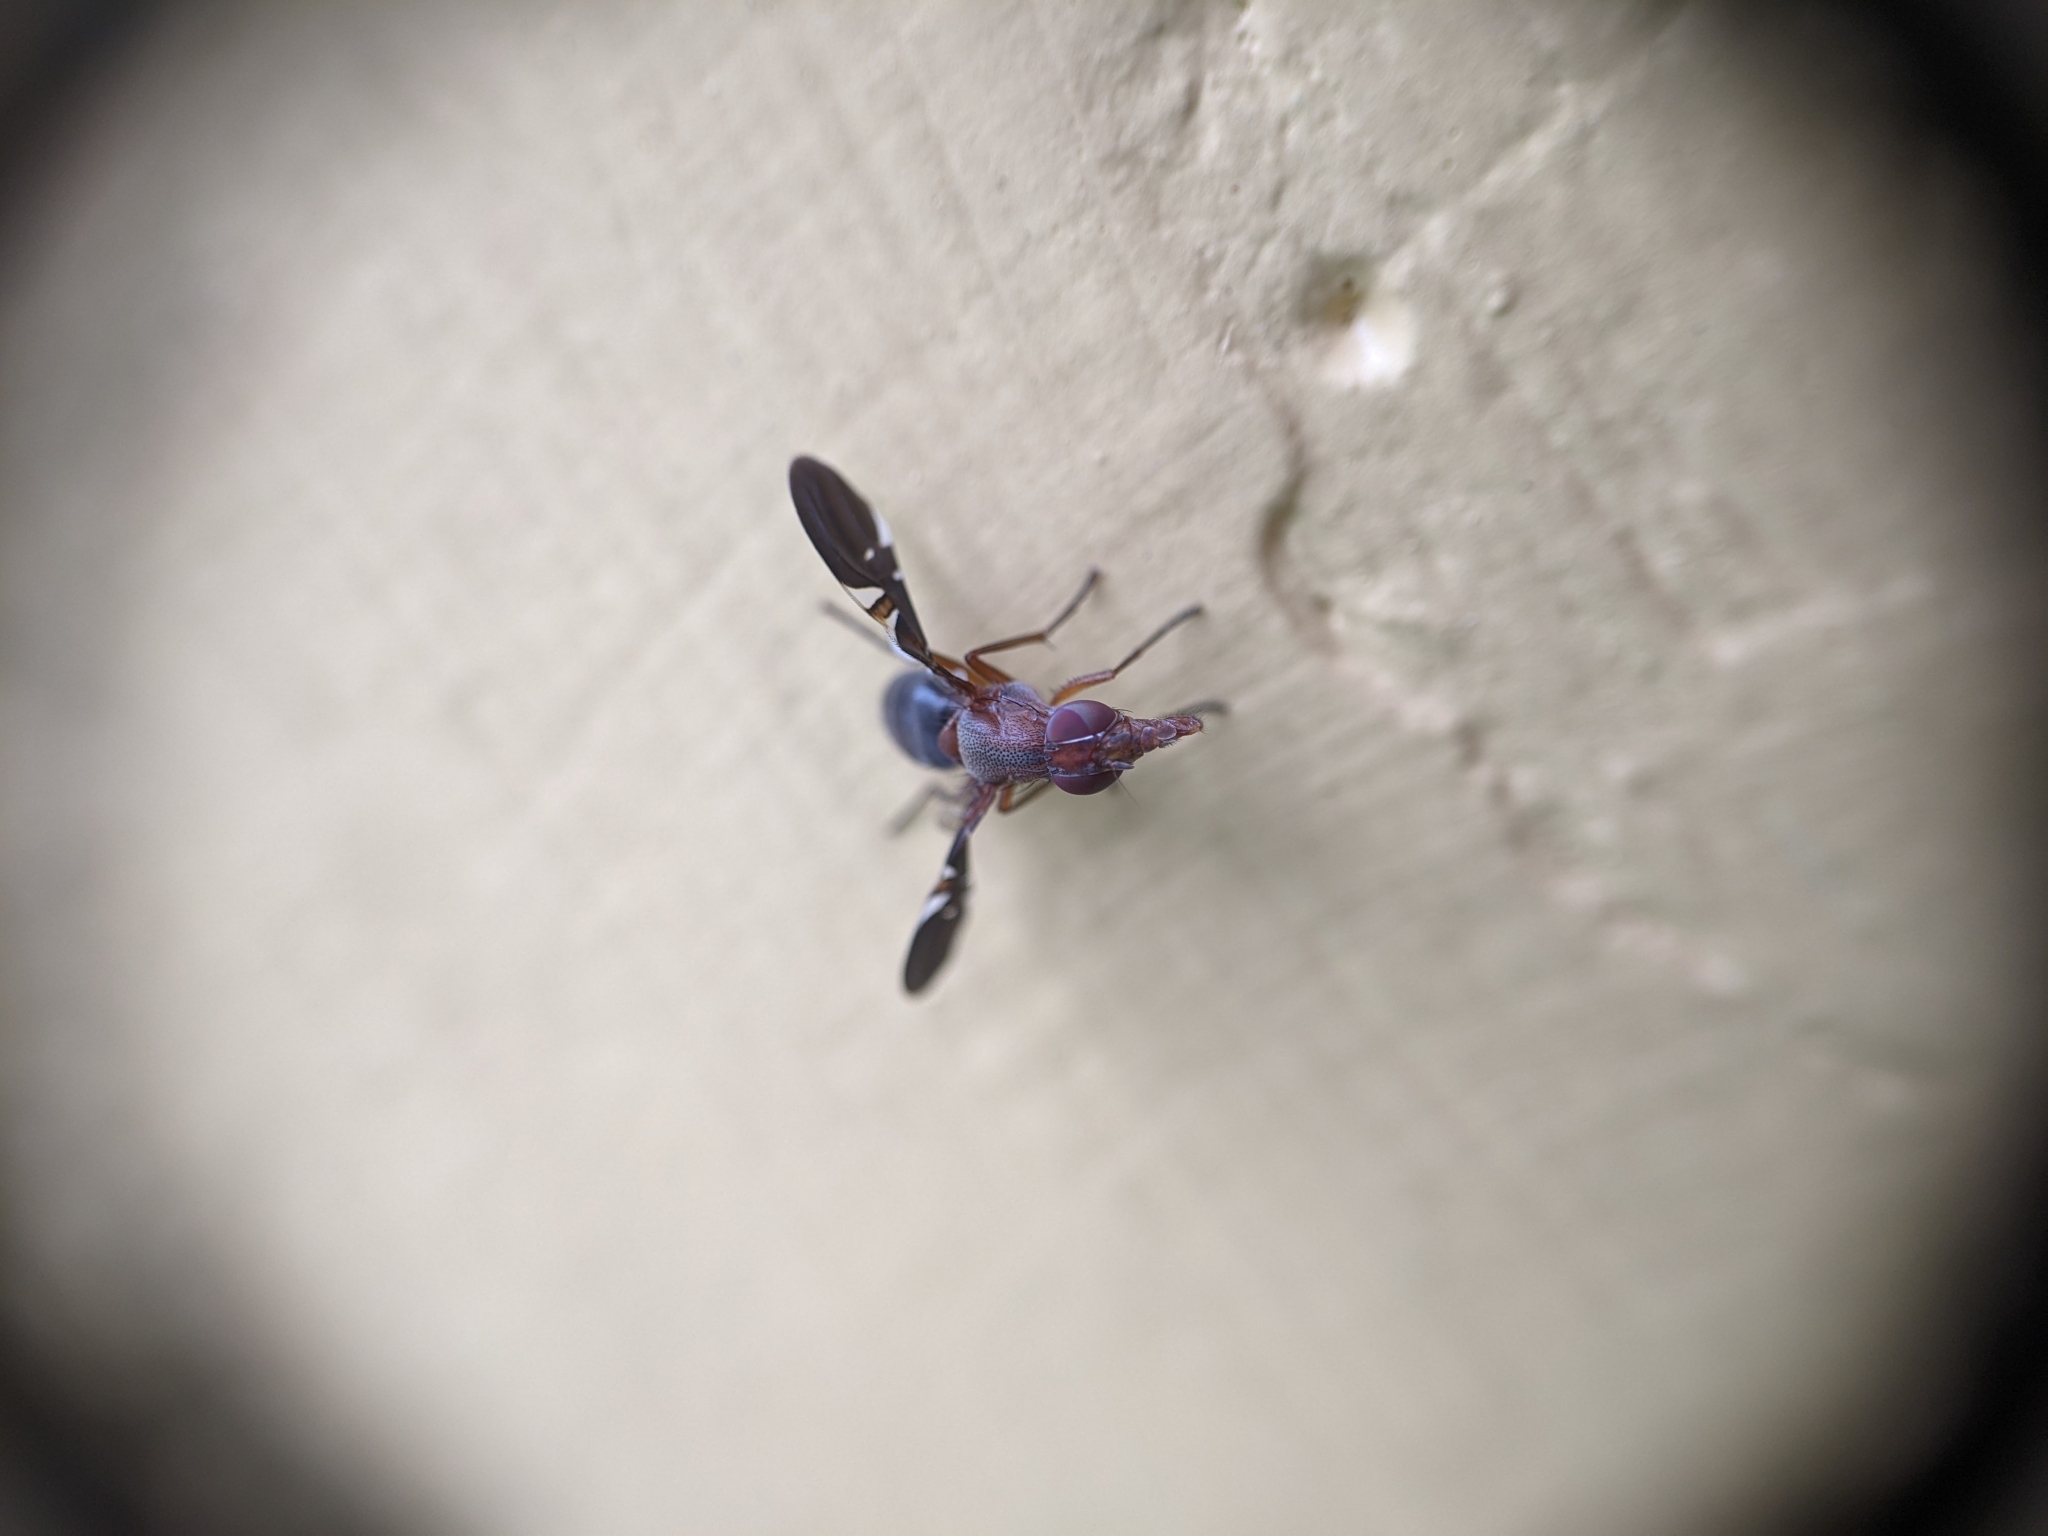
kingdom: Animalia
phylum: Arthropoda
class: Insecta
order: Diptera
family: Ulidiidae
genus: Delphinia
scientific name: Delphinia picta
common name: Common picture-winged fly
